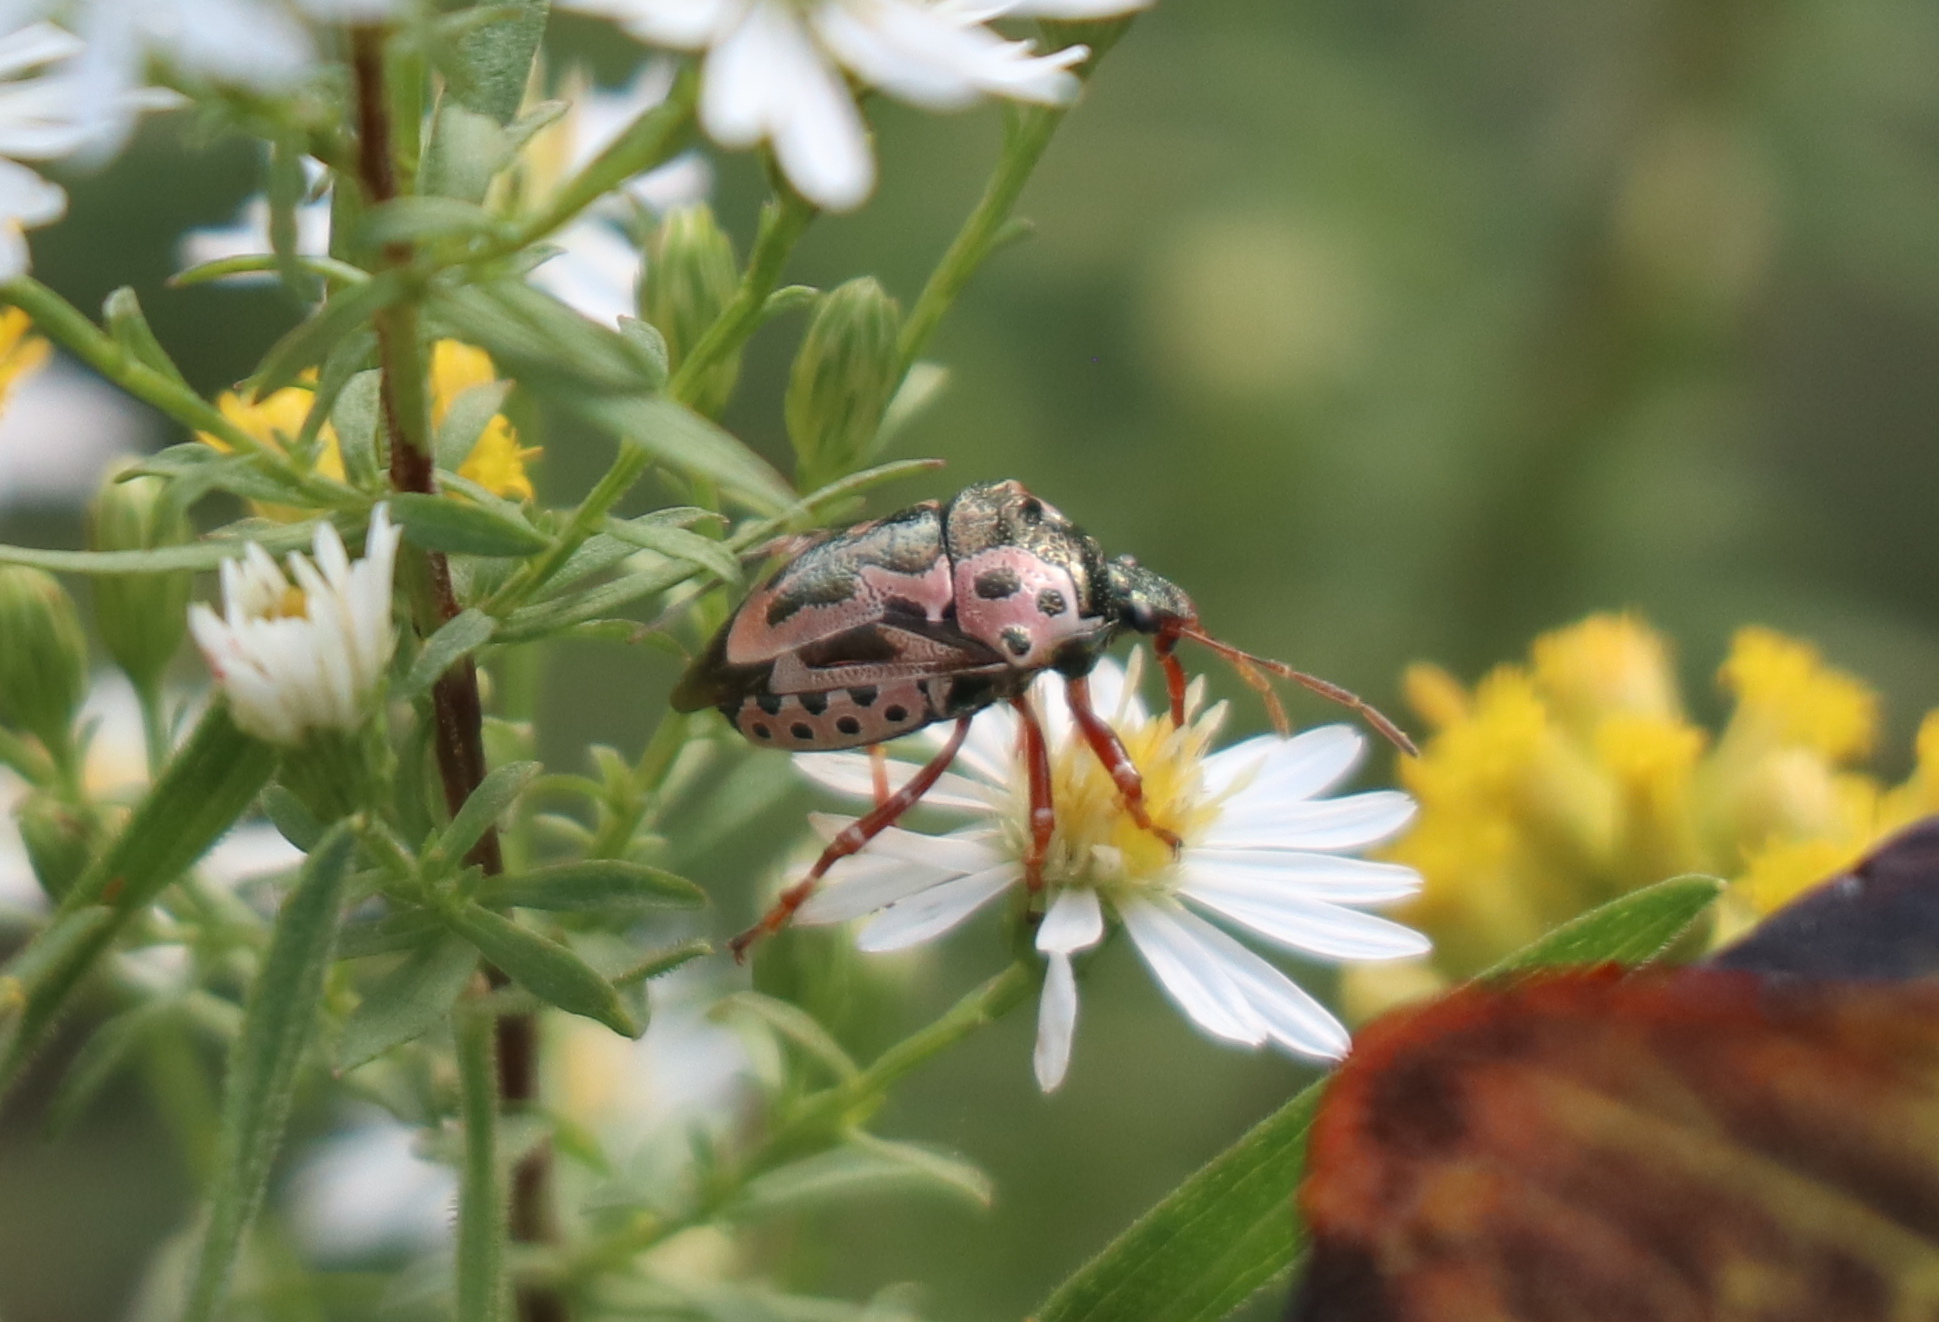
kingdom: Animalia
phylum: Arthropoda
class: Insecta
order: Hemiptera
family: Pentatomidae
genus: Stiretrus
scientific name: Stiretrus anchorago
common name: Anchor stink bug
